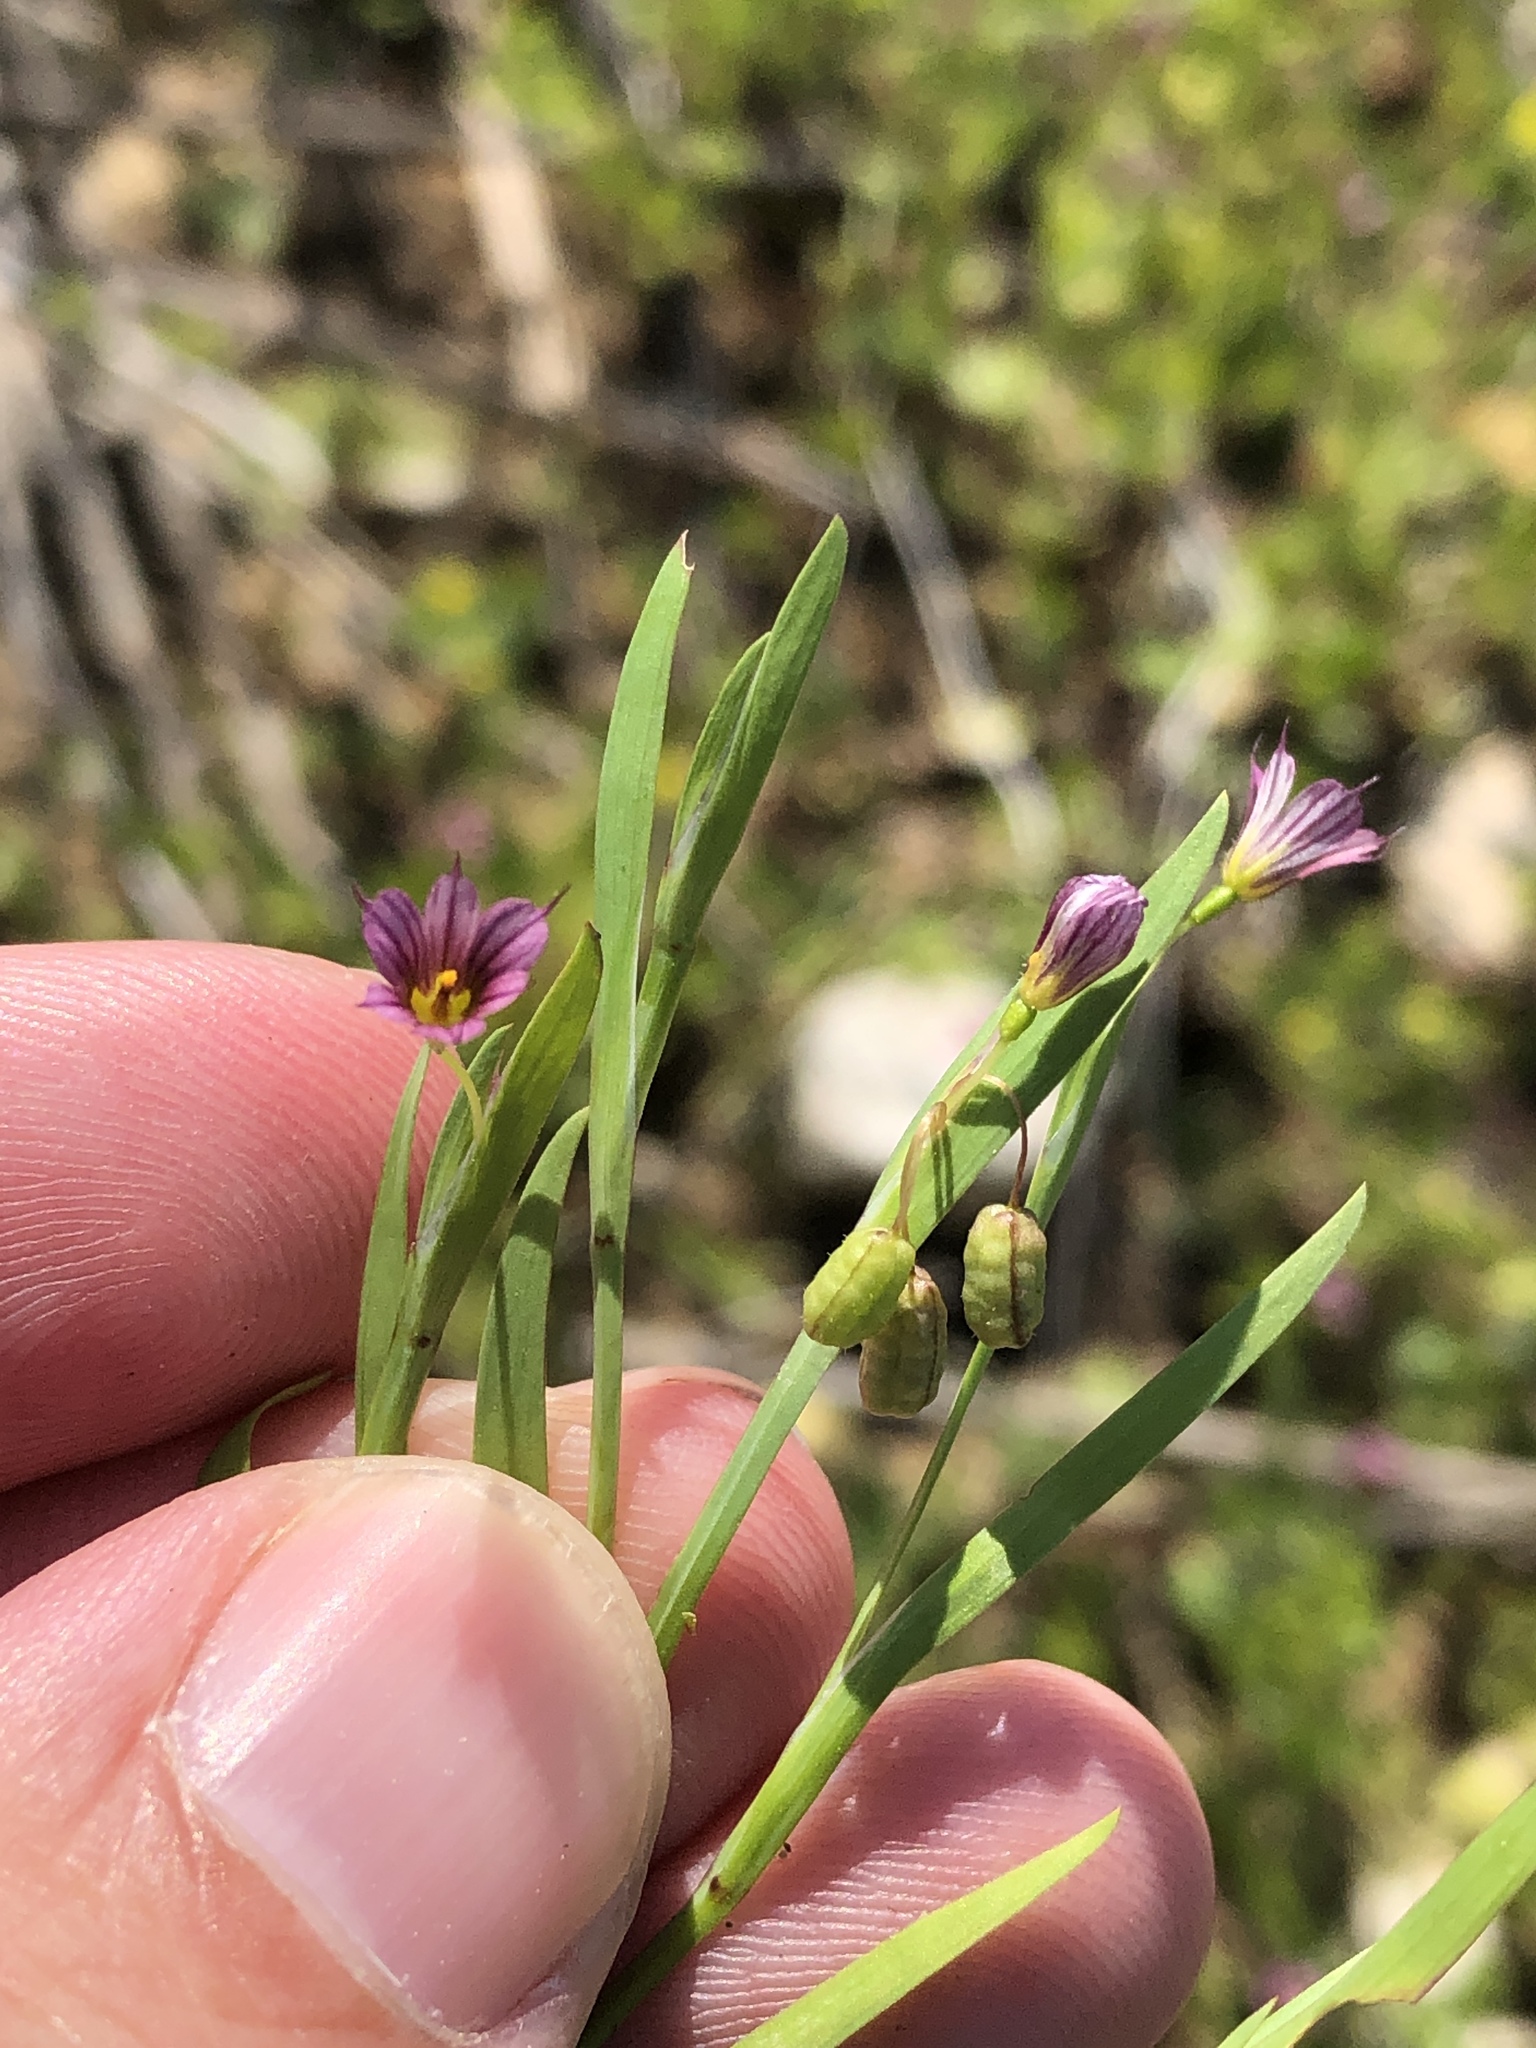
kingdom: Plantae
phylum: Tracheophyta
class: Liliopsida
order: Asparagales
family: Iridaceae
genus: Sisyrinchium
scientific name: Sisyrinchium minus
